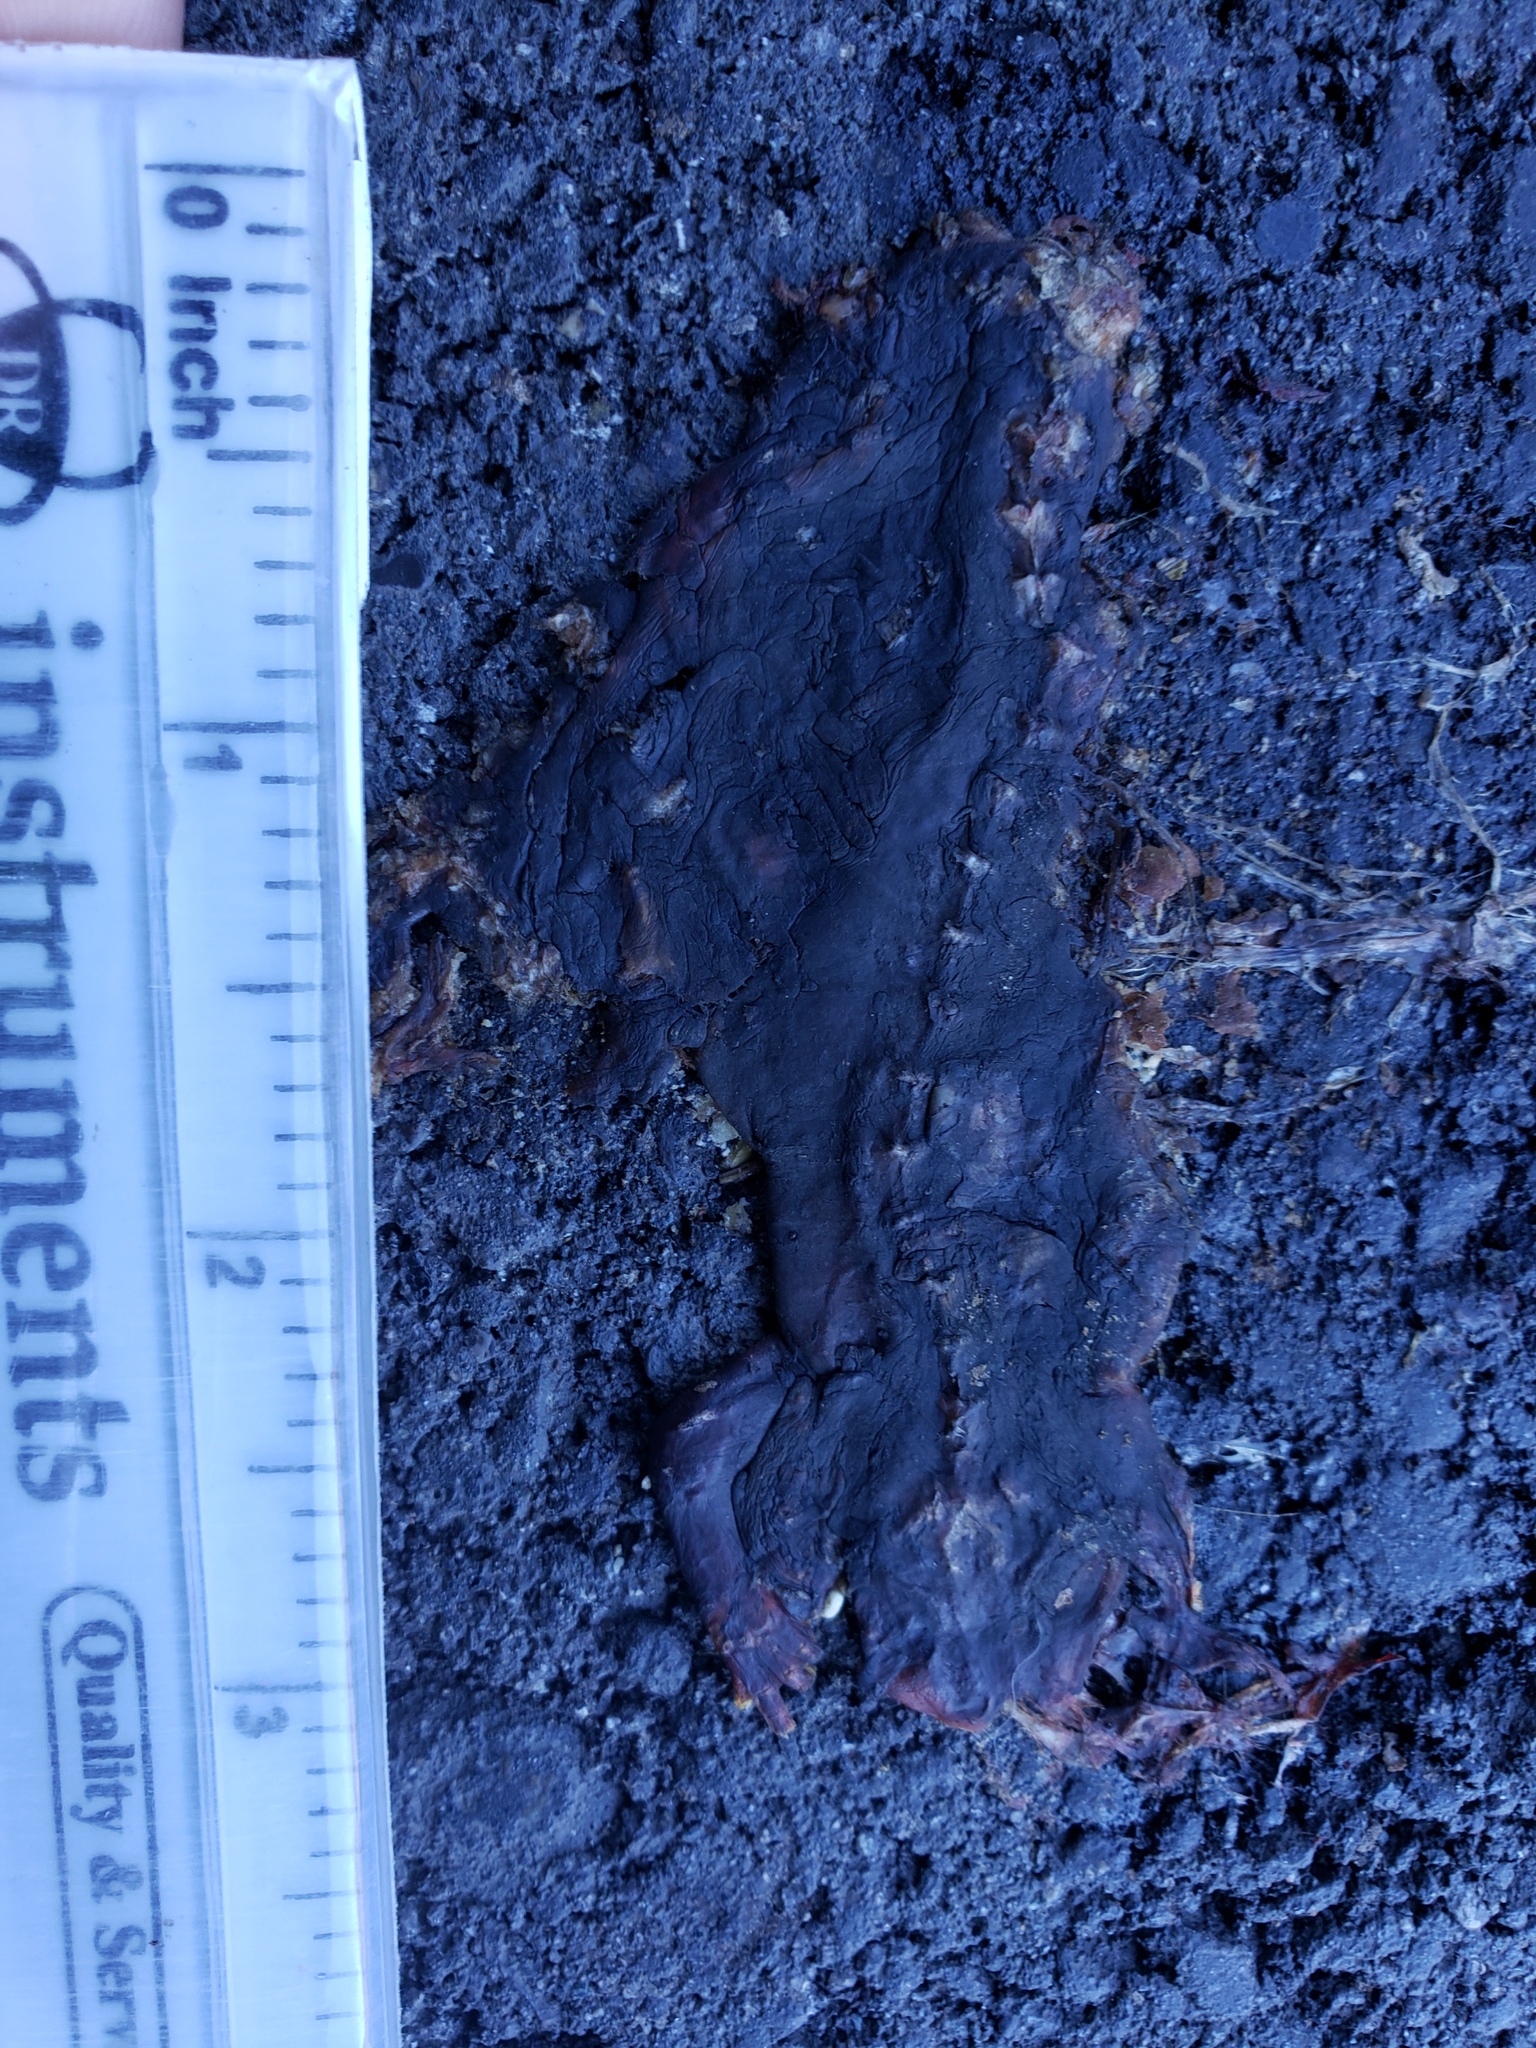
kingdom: Animalia
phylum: Chordata
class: Amphibia
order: Caudata
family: Salamandridae
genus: Taricha
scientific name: Taricha
